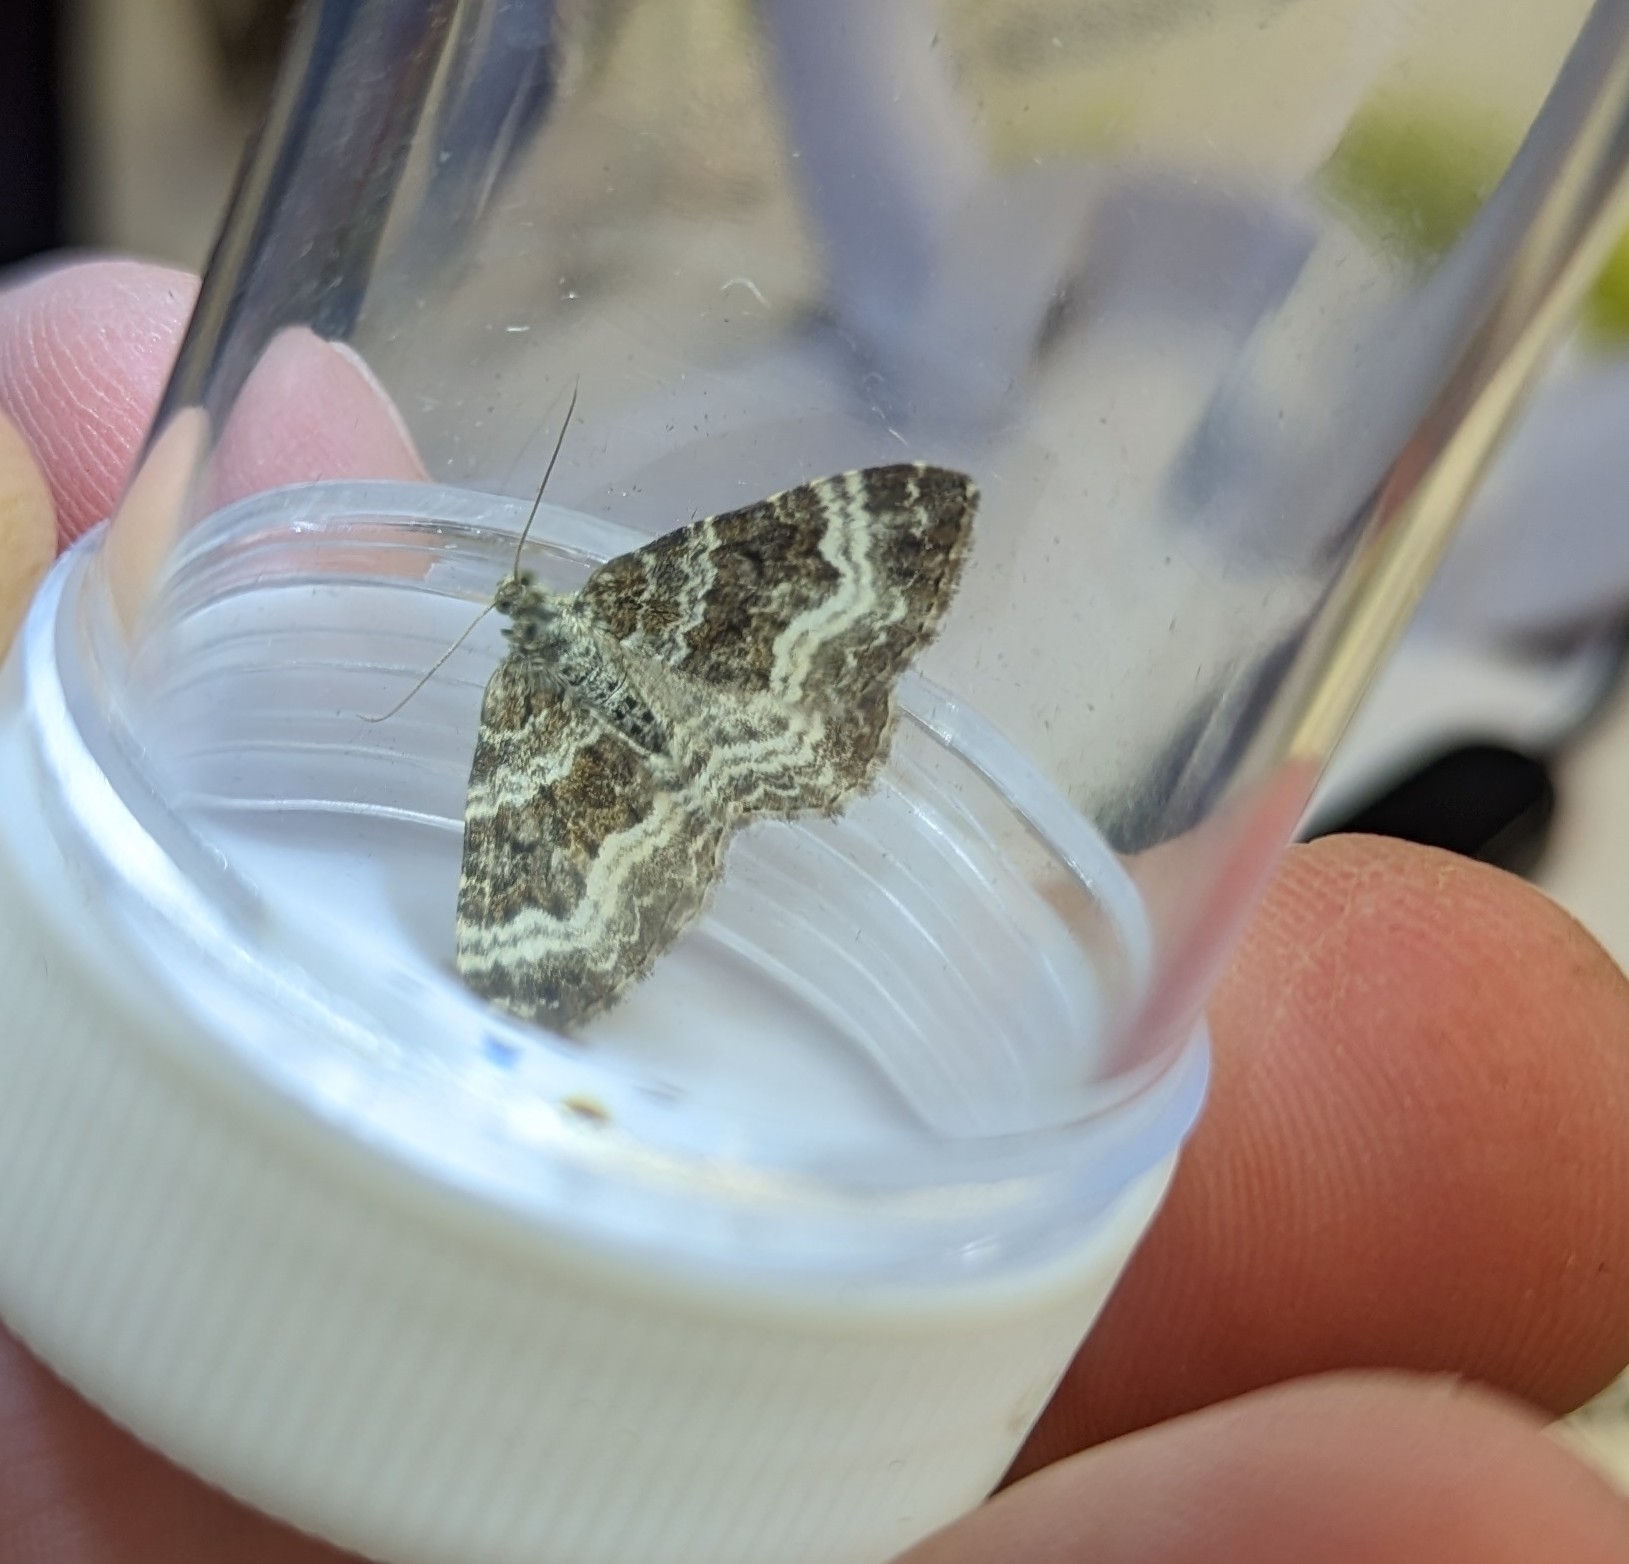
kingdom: Animalia
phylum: Arthropoda
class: Insecta
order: Lepidoptera
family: Geometridae
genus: Epirrhoe
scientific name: Epirrhoe alternata
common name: Common carpet
